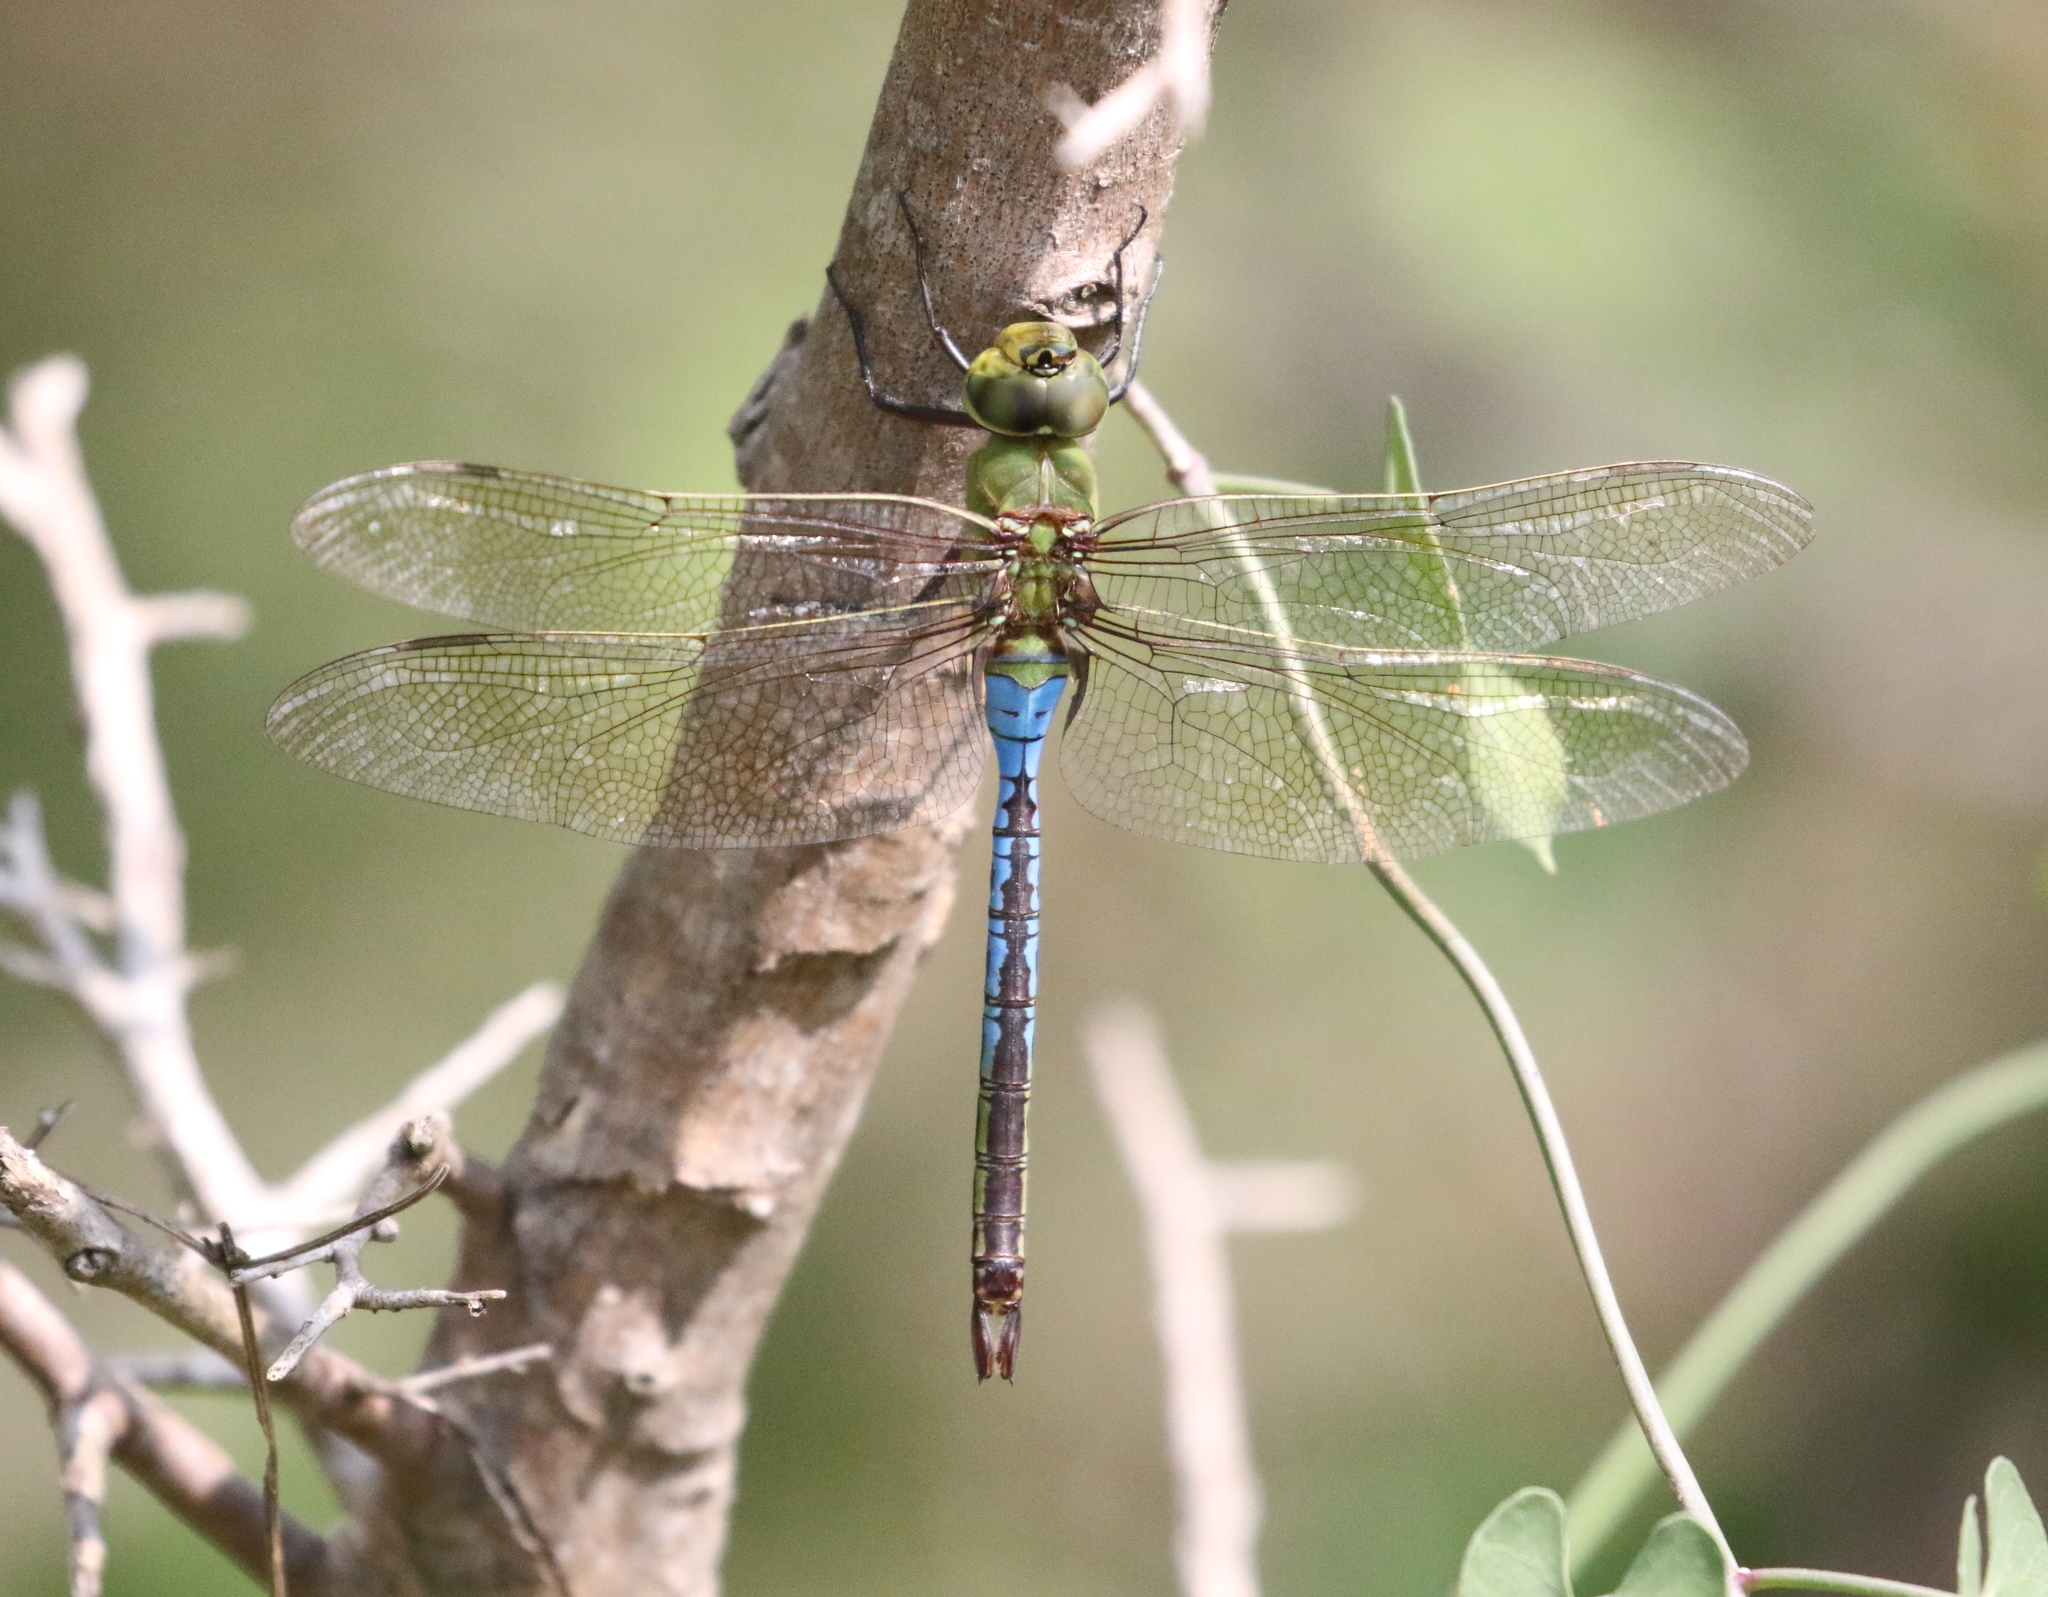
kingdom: Animalia
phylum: Arthropoda
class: Insecta
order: Odonata
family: Aeshnidae
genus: Anax
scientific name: Anax junius
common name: Common green darner
